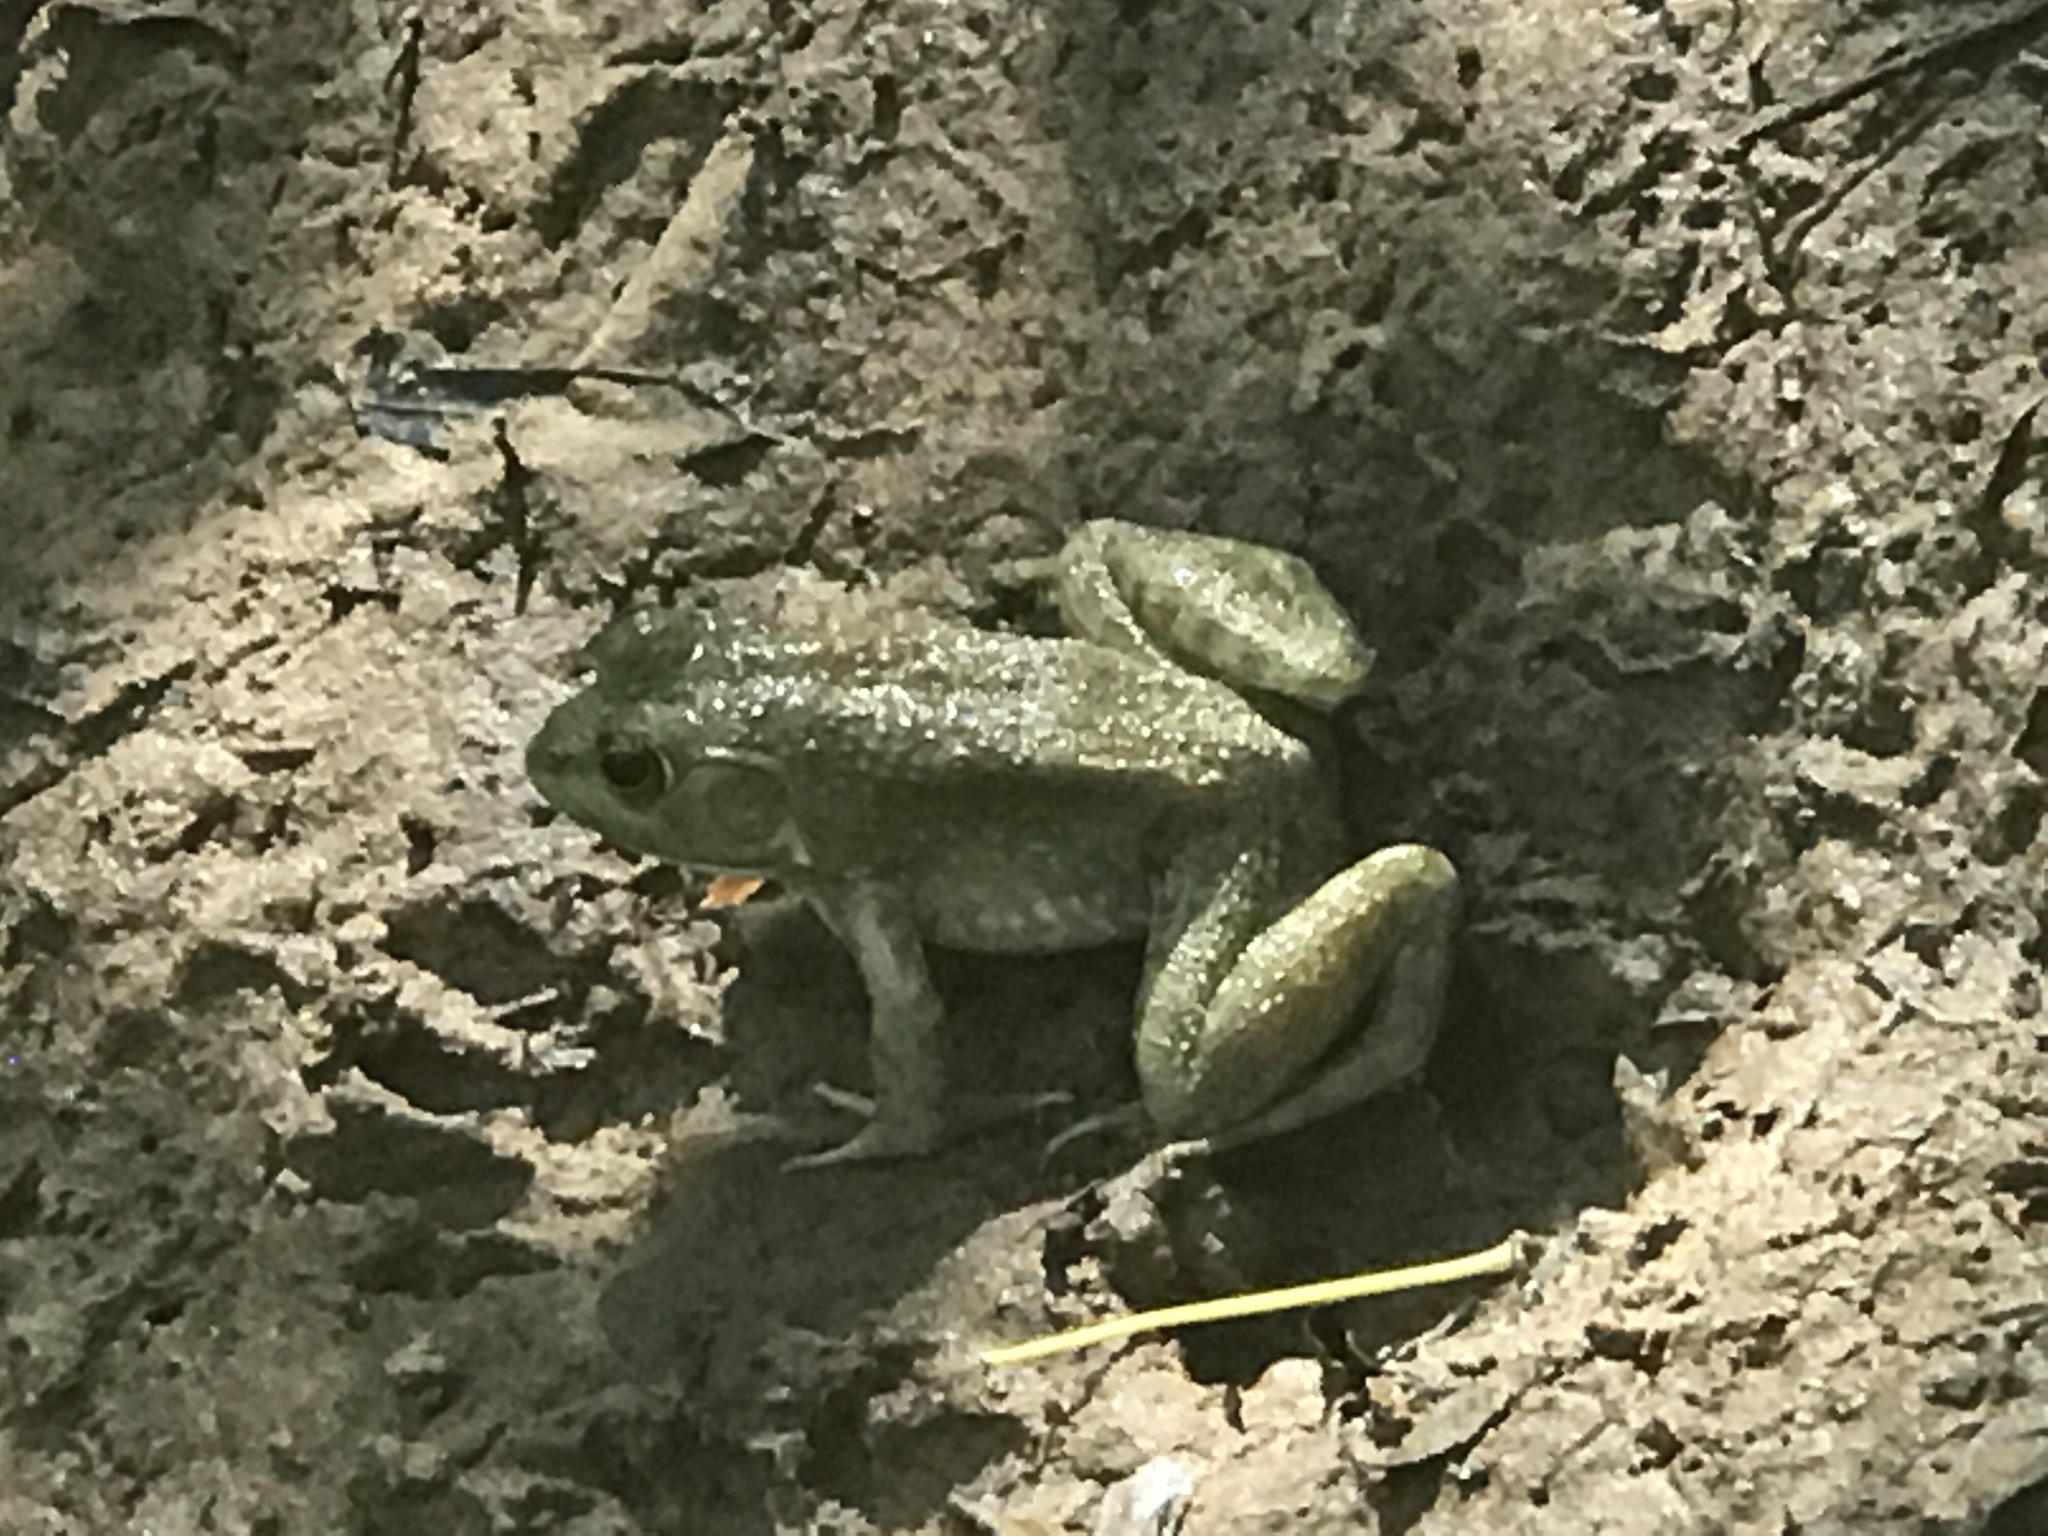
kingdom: Animalia
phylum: Chordata
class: Amphibia
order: Anura
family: Ranidae
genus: Lithobates
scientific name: Lithobates catesbeianus
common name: American bullfrog
